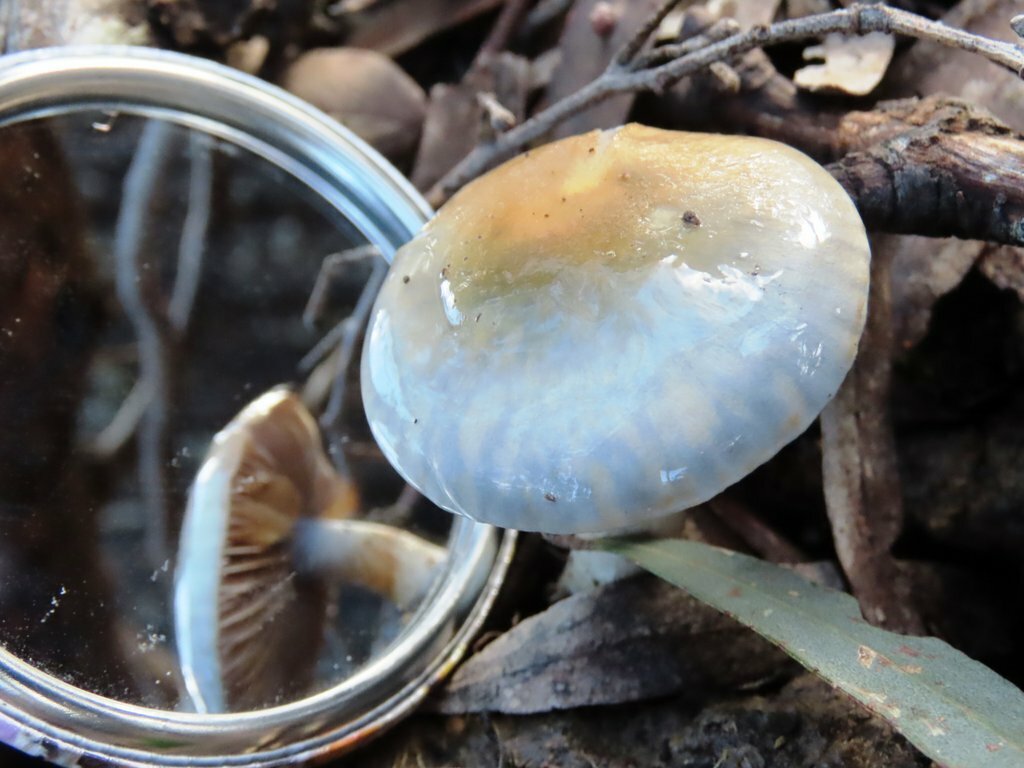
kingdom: Fungi
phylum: Basidiomycota
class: Agaricomycetes
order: Agaricales
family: Cortinariaceae
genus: Cortinarius
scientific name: Cortinarius rotundisporus
